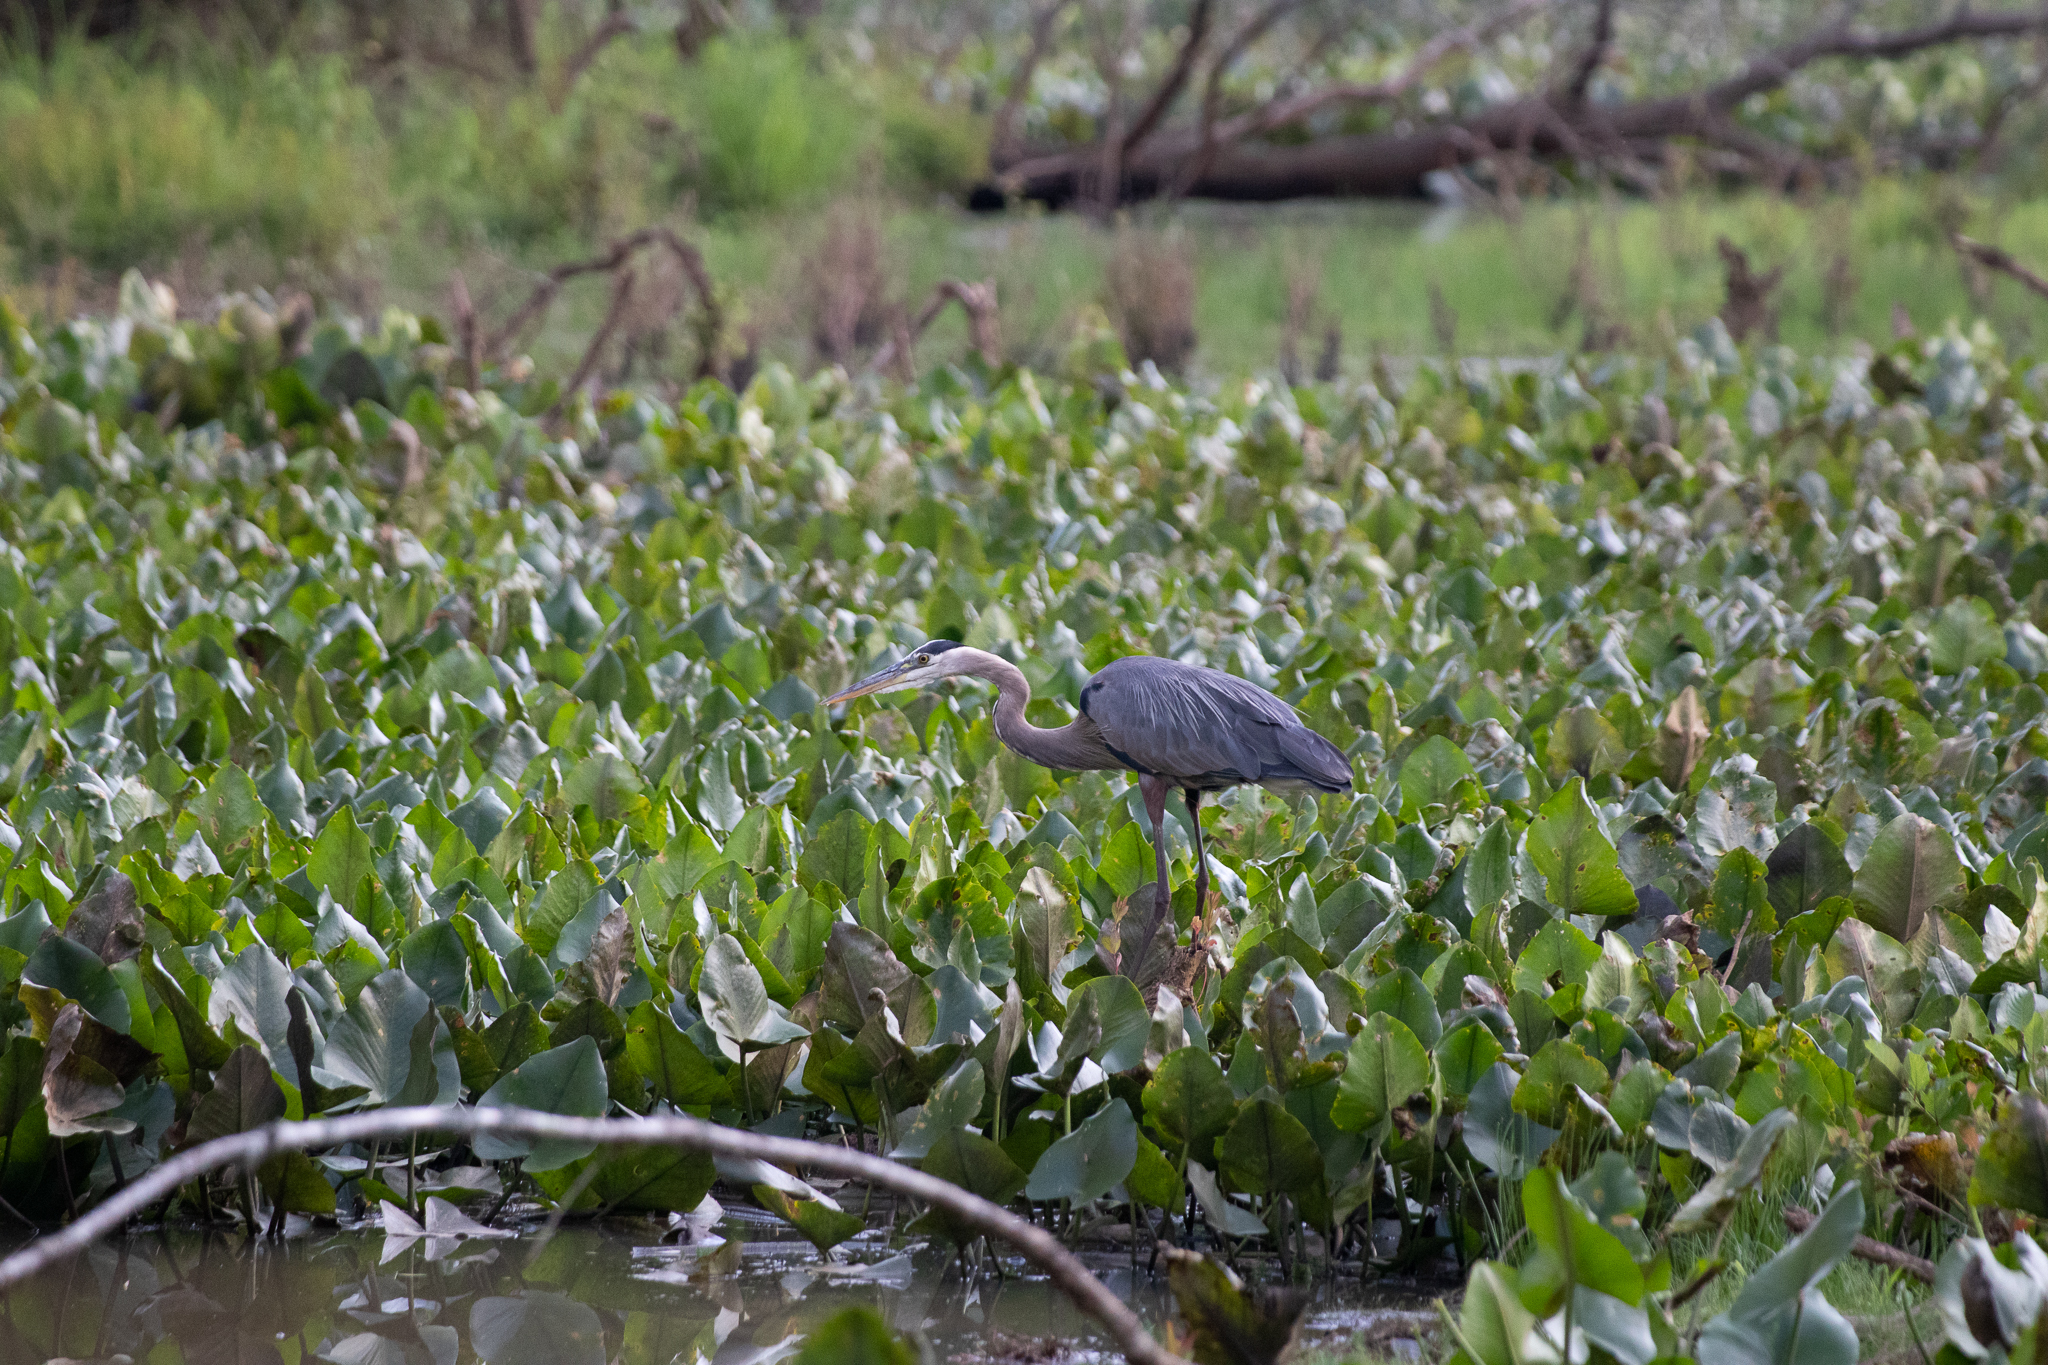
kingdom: Animalia
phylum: Chordata
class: Aves
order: Pelecaniformes
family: Ardeidae
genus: Ardea
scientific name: Ardea herodias
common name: Great blue heron
